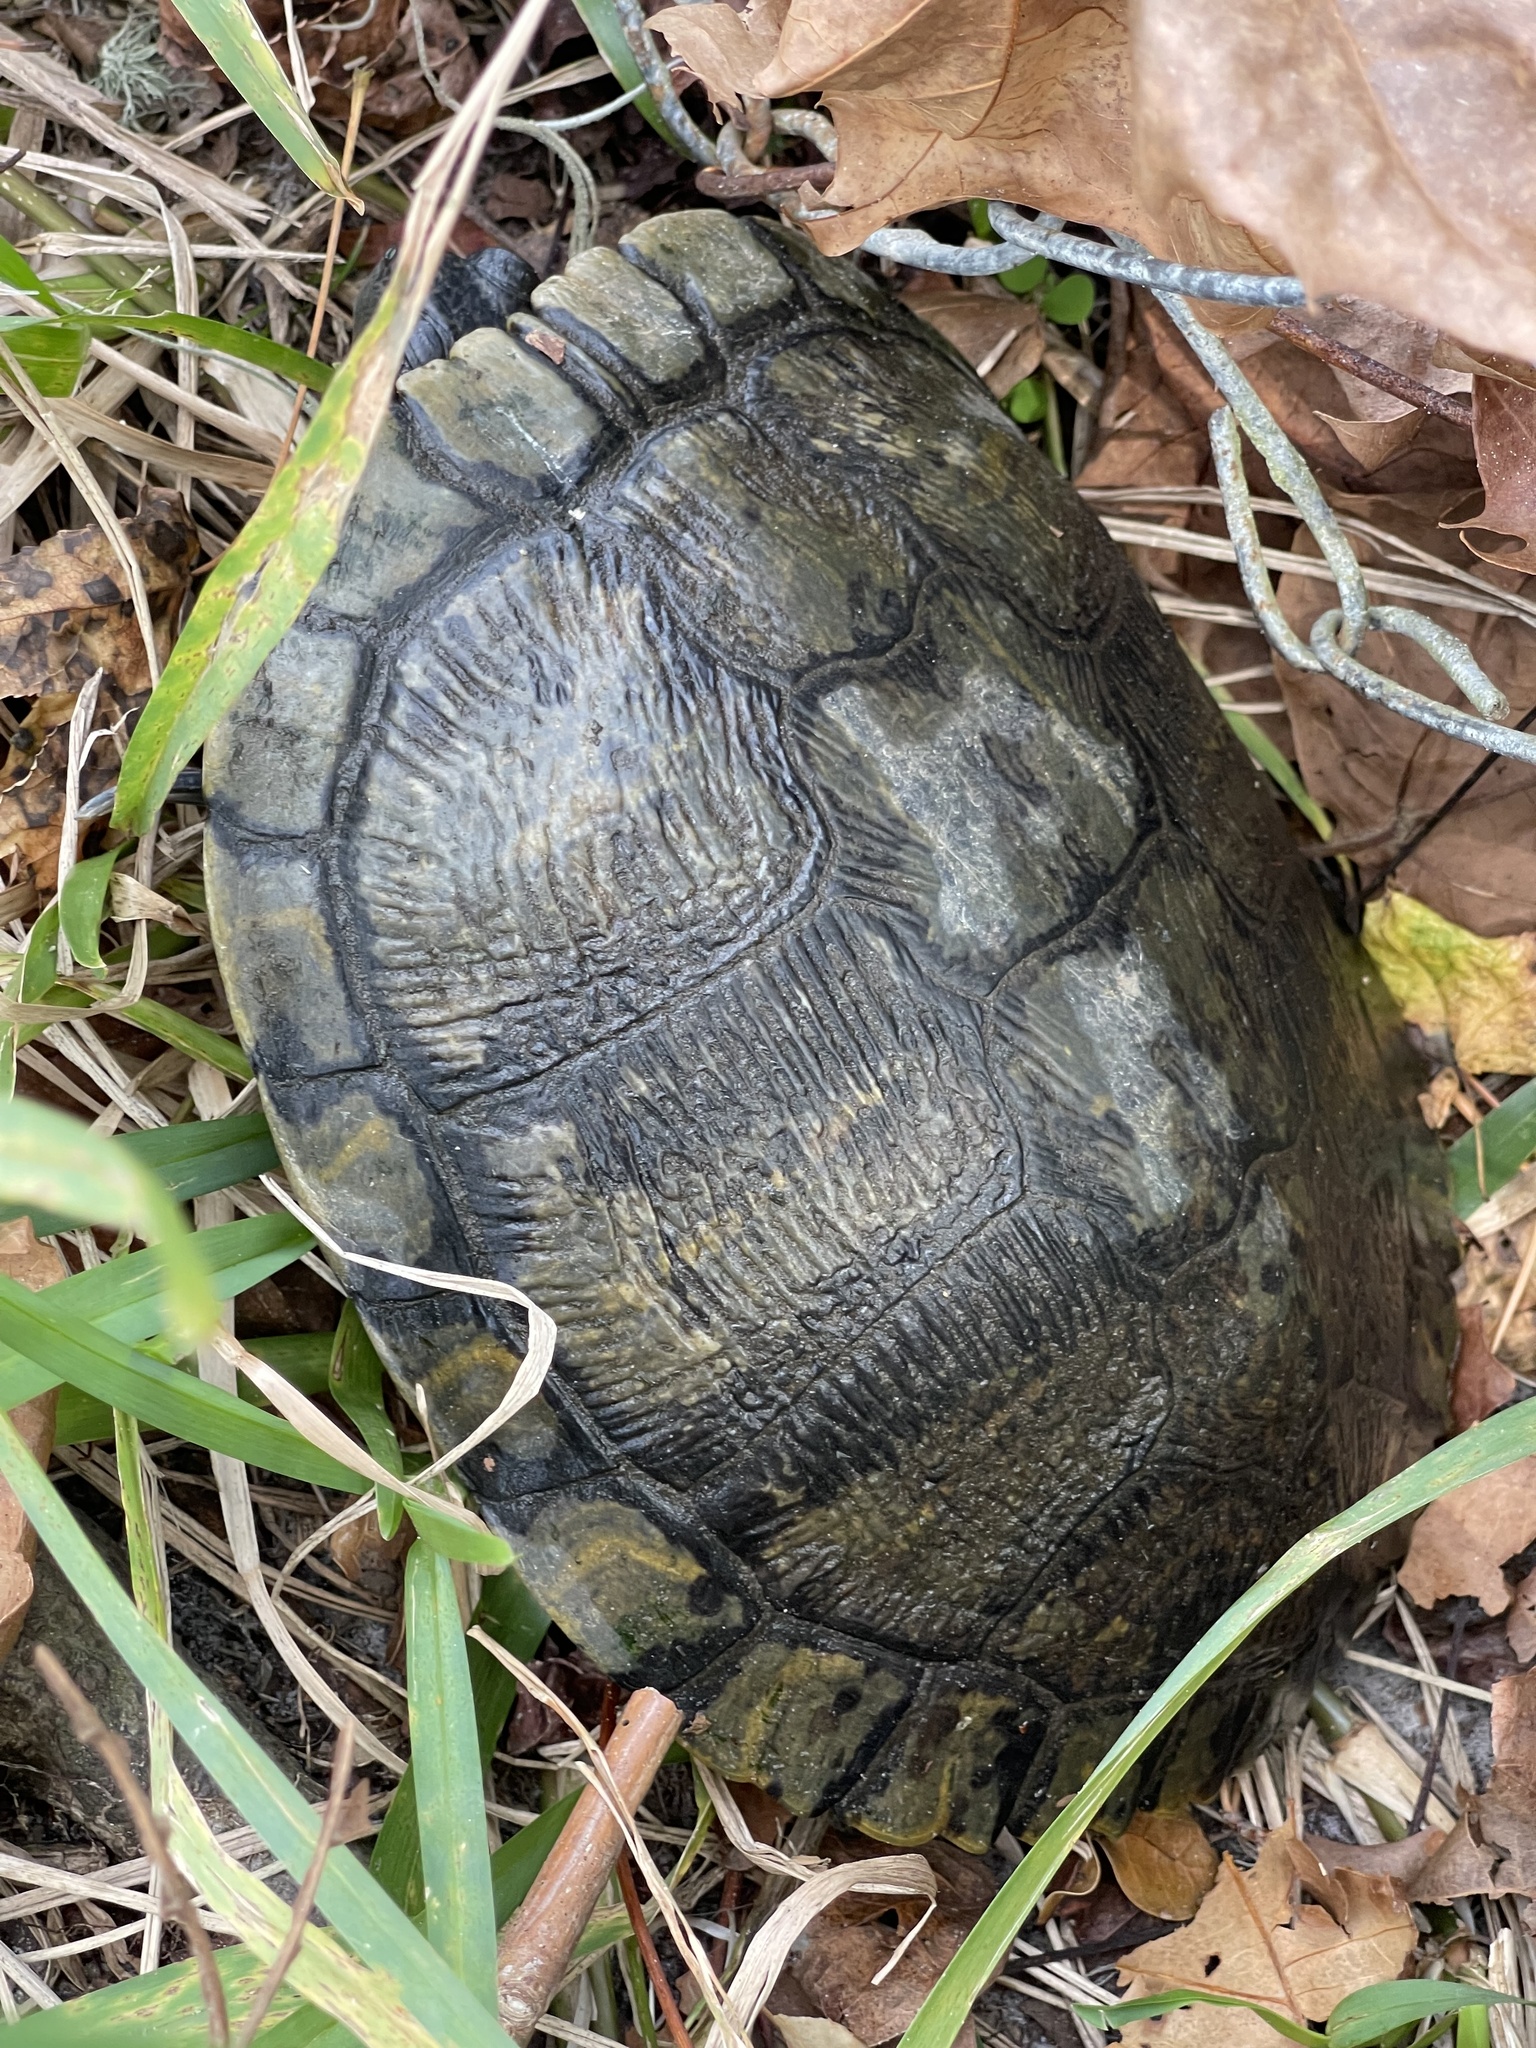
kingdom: Animalia
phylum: Chordata
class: Testudines
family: Emydidae
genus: Trachemys
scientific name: Trachemys scripta
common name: Slider
